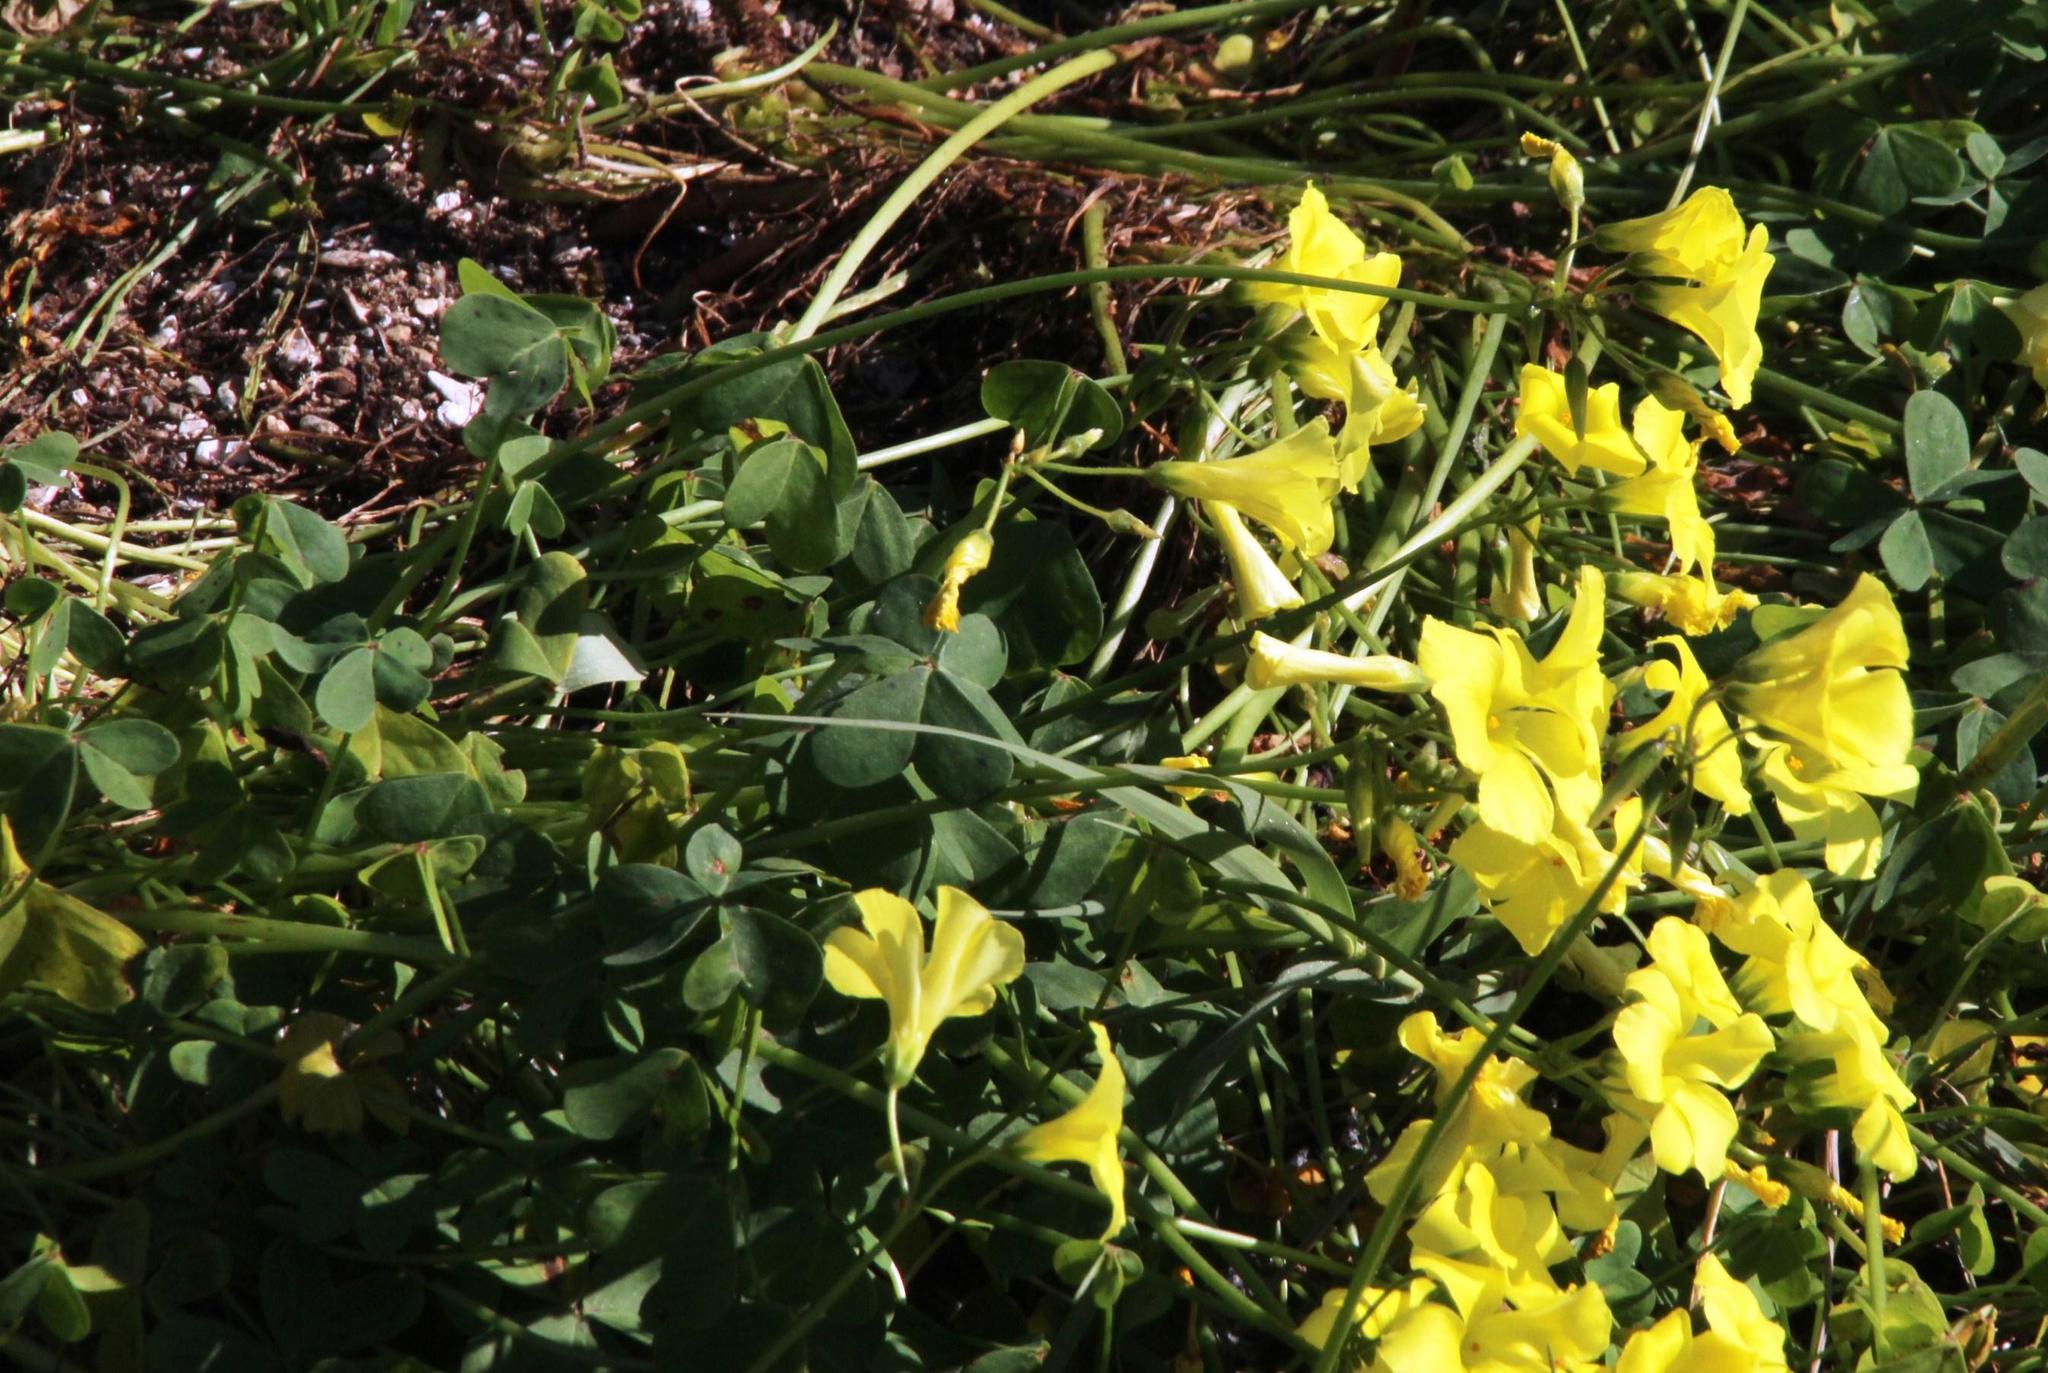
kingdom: Plantae
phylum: Tracheophyta
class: Magnoliopsida
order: Oxalidales
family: Oxalidaceae
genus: Oxalis
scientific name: Oxalis pes-caprae
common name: Bermuda-buttercup
